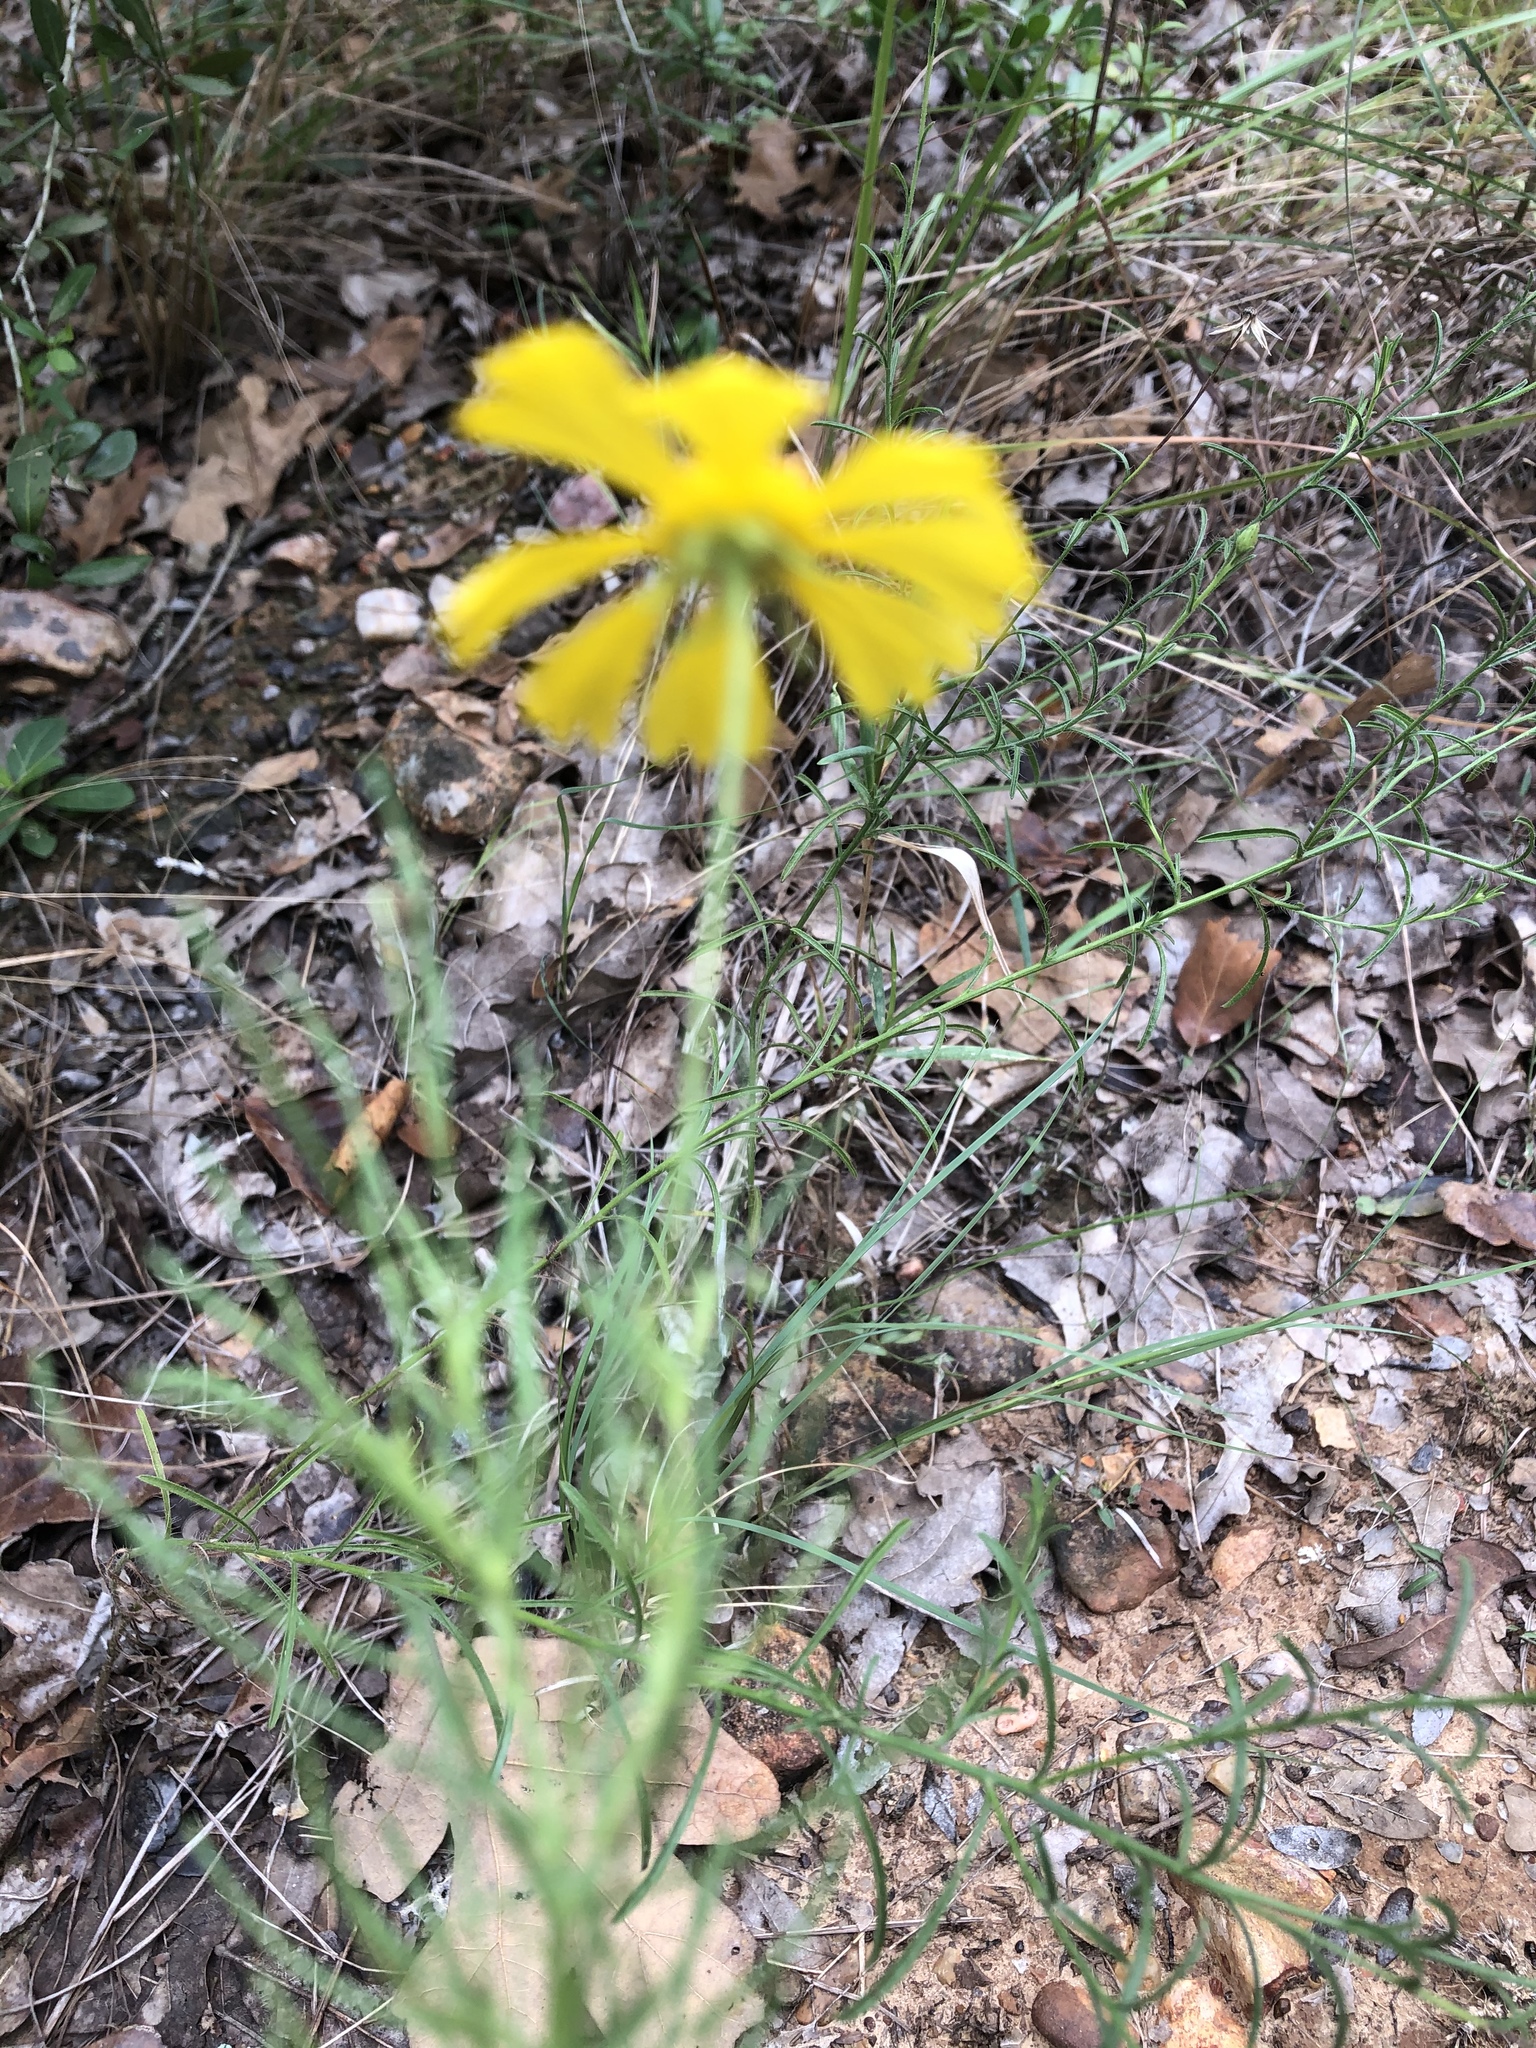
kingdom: Plantae
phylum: Tracheophyta
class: Magnoliopsida
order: Asterales
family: Asteraceae
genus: Helenium
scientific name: Helenium amarum
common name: Bitter sneezeweed
